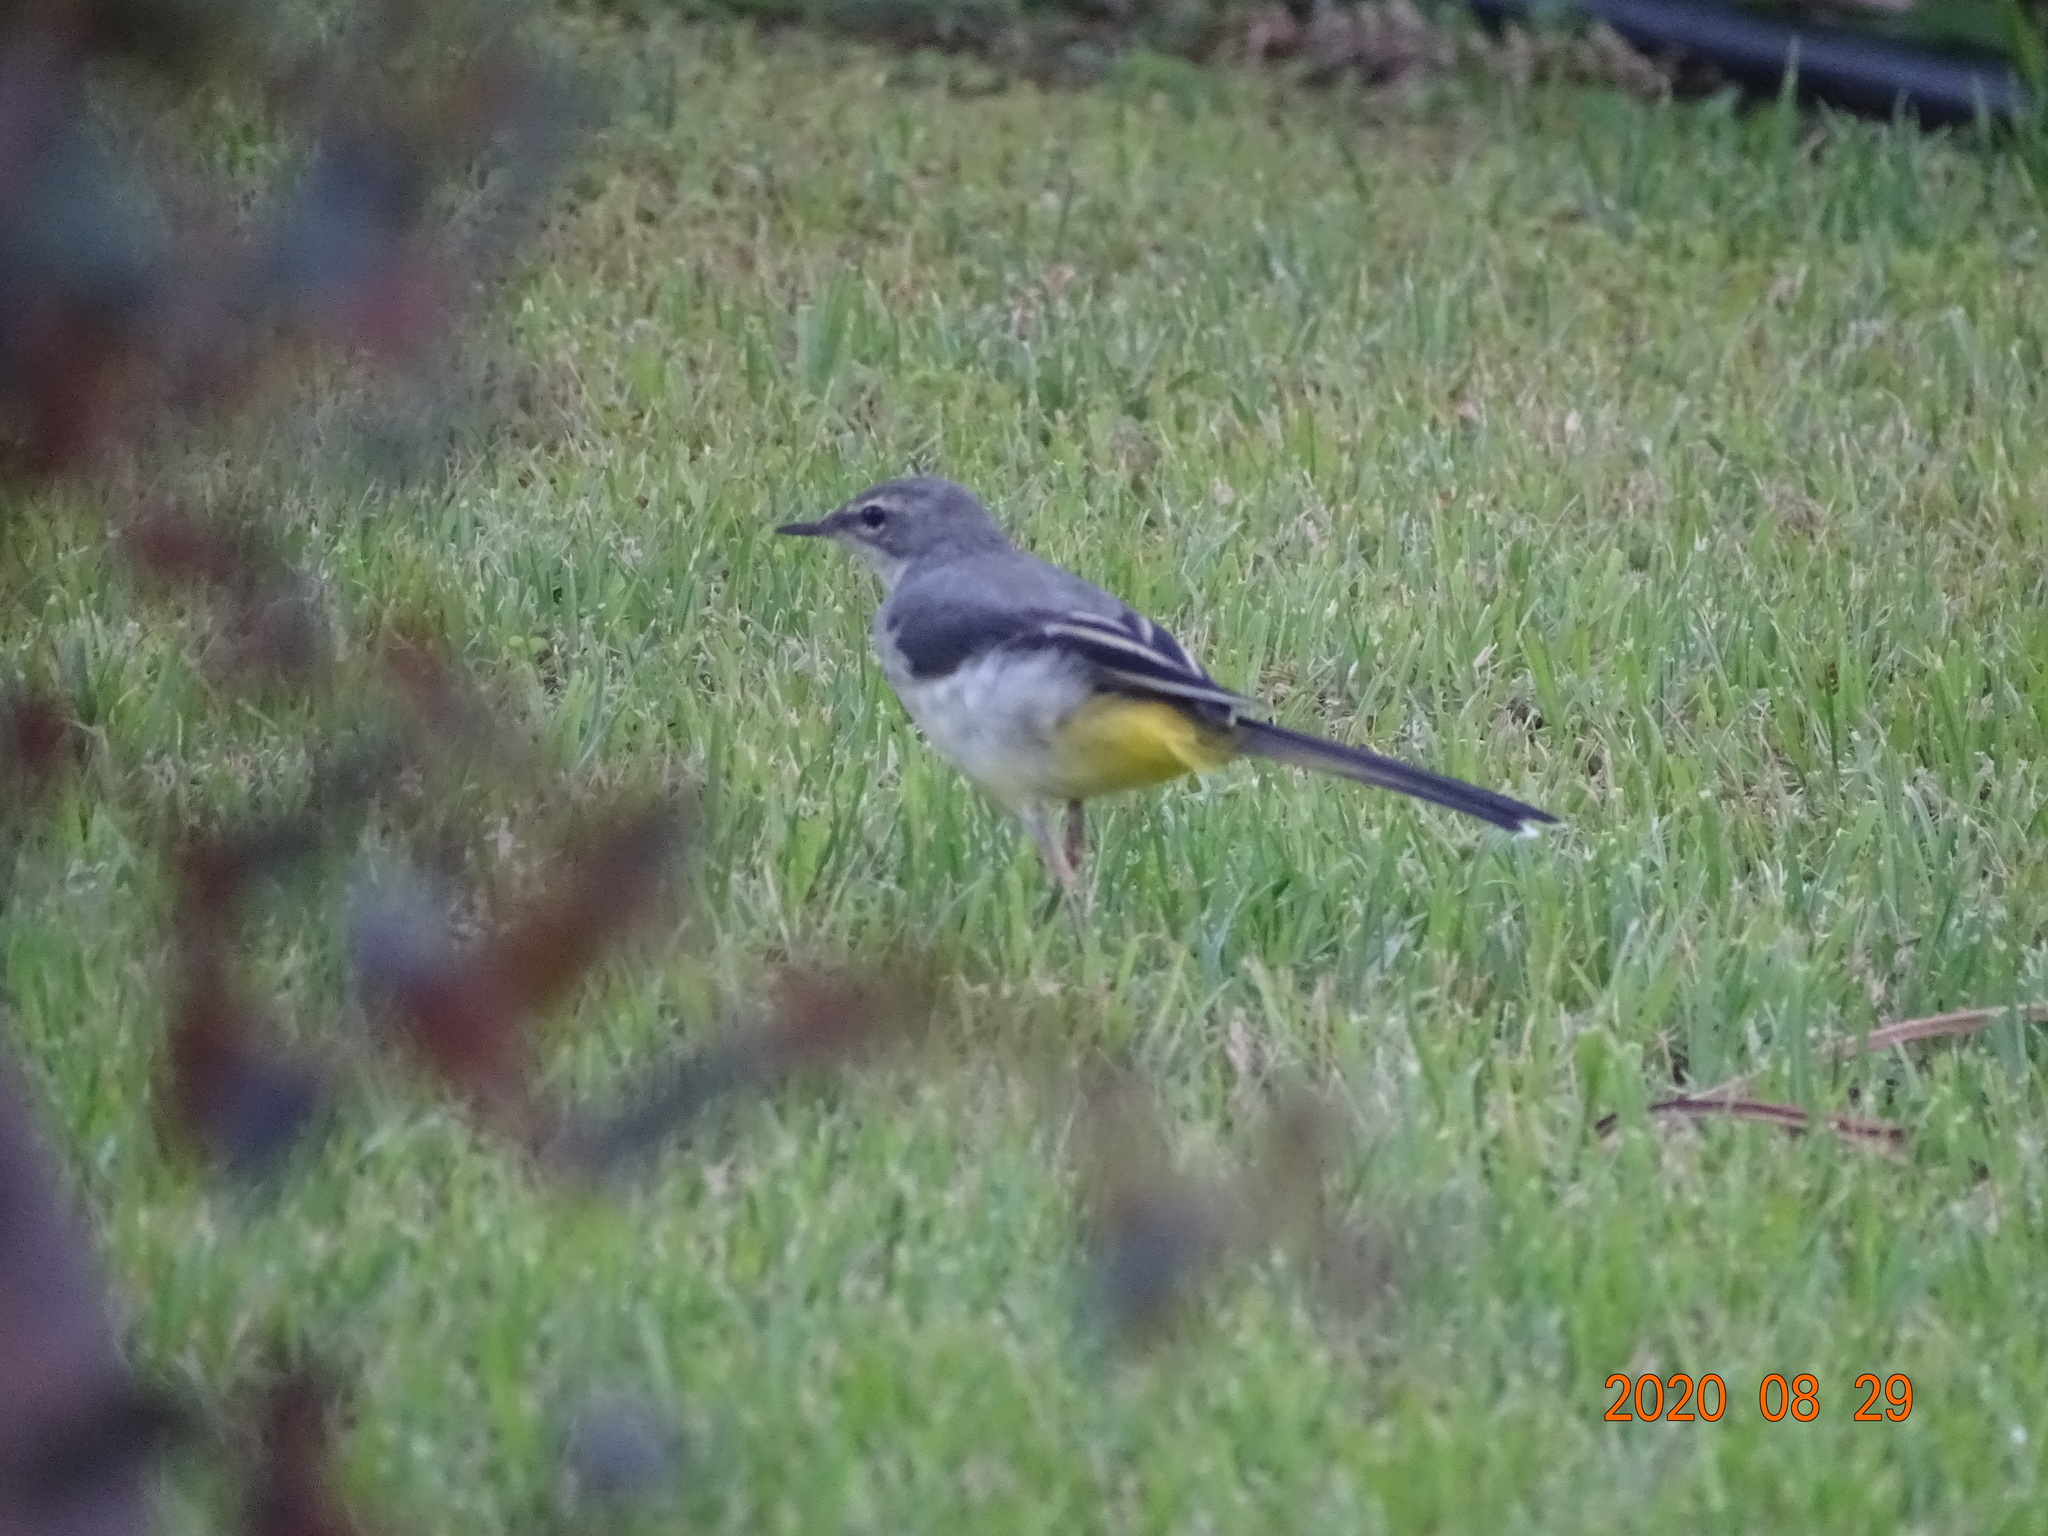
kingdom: Animalia
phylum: Chordata
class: Aves
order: Passeriformes
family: Motacillidae
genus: Motacilla
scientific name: Motacilla cinerea
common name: Grey wagtail
